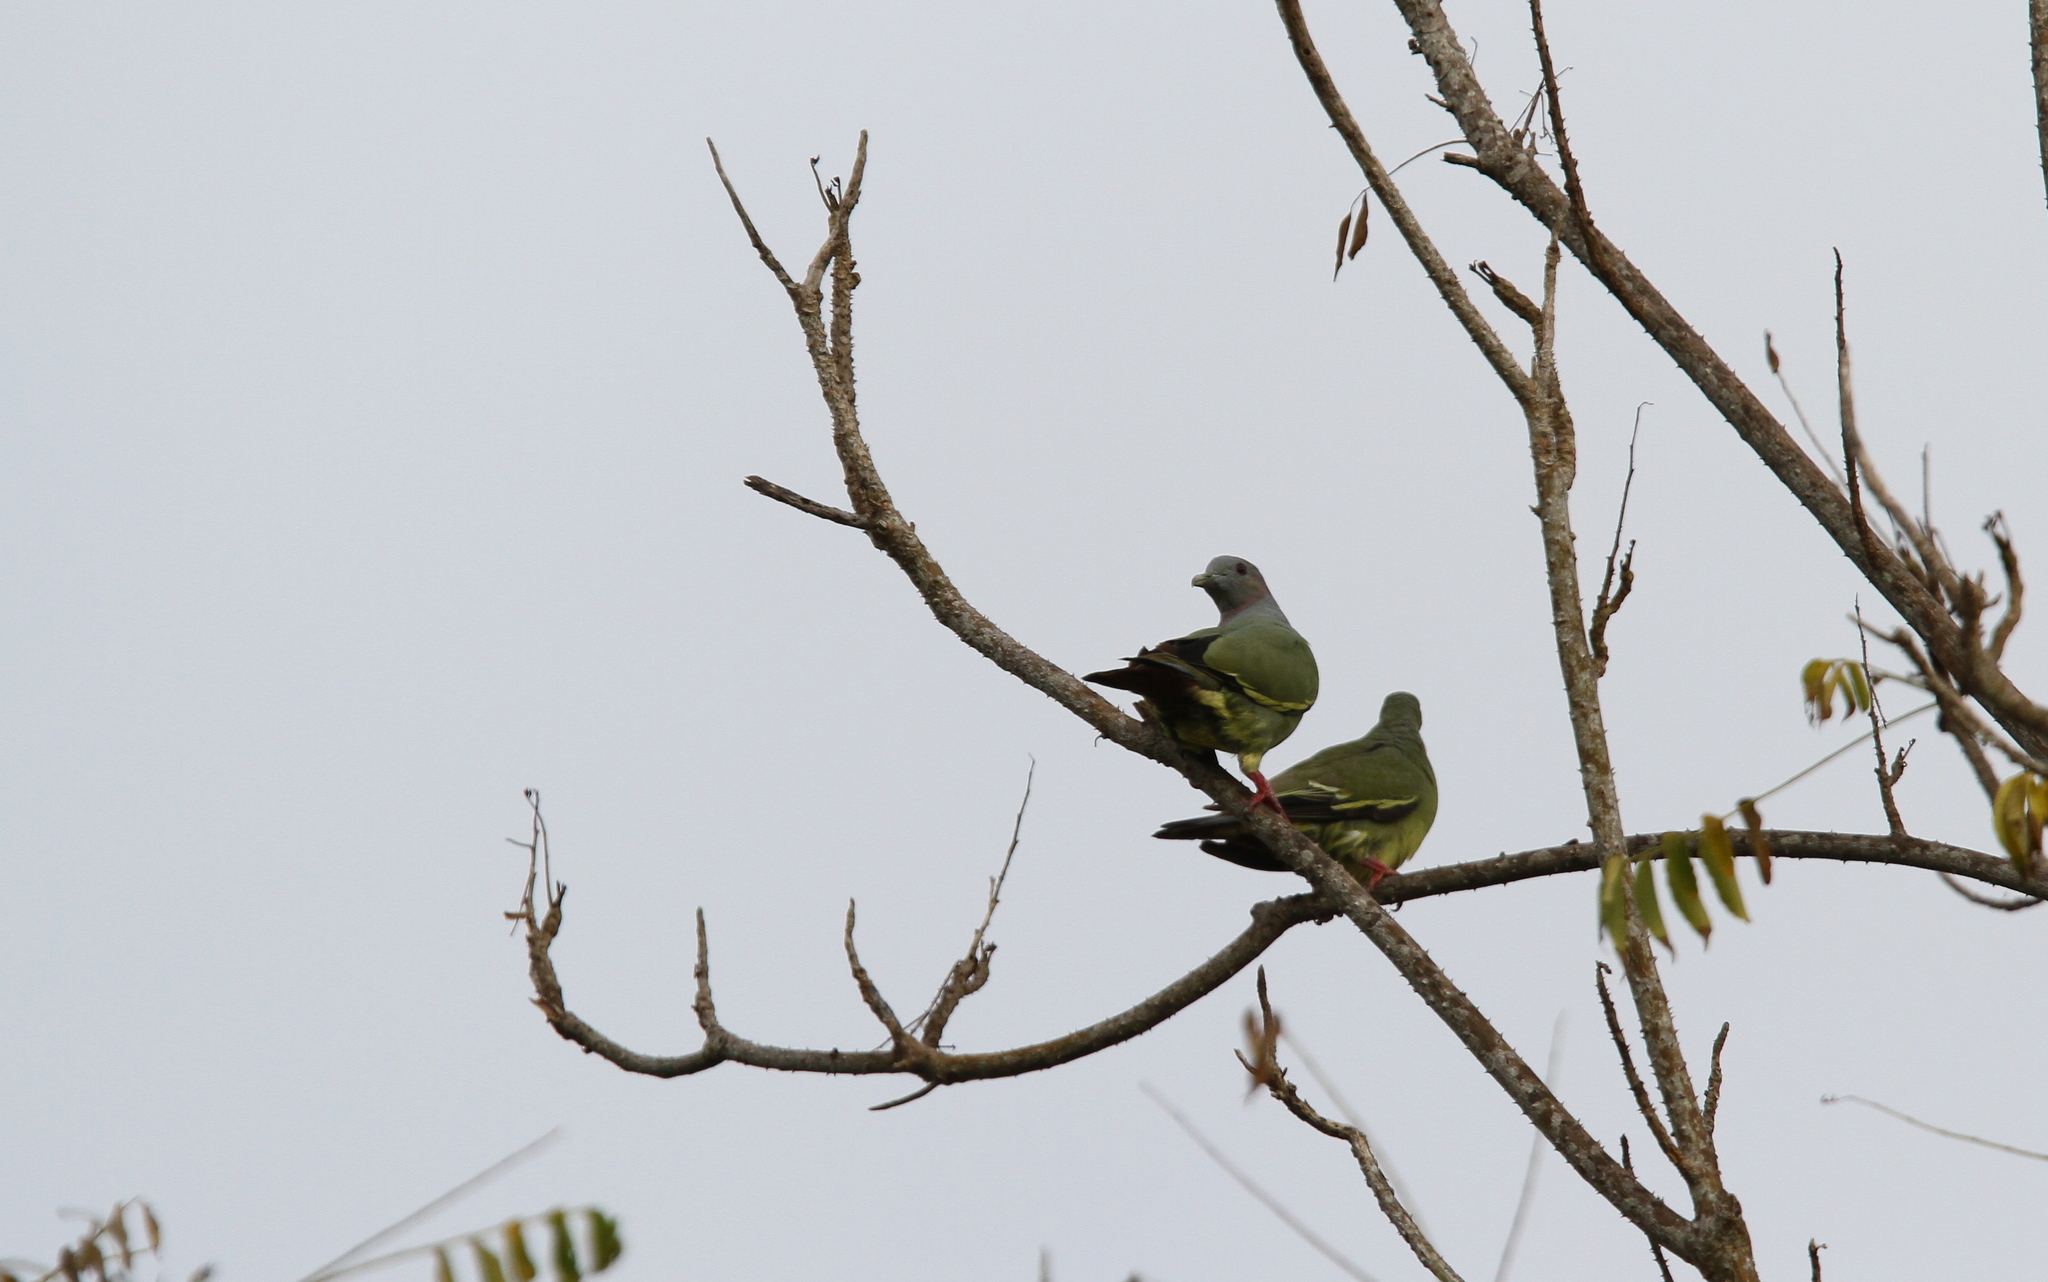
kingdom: Animalia
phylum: Chordata
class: Aves
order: Columbiformes
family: Columbidae
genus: Treron
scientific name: Treron vernans
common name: Pink-necked green pigeon
